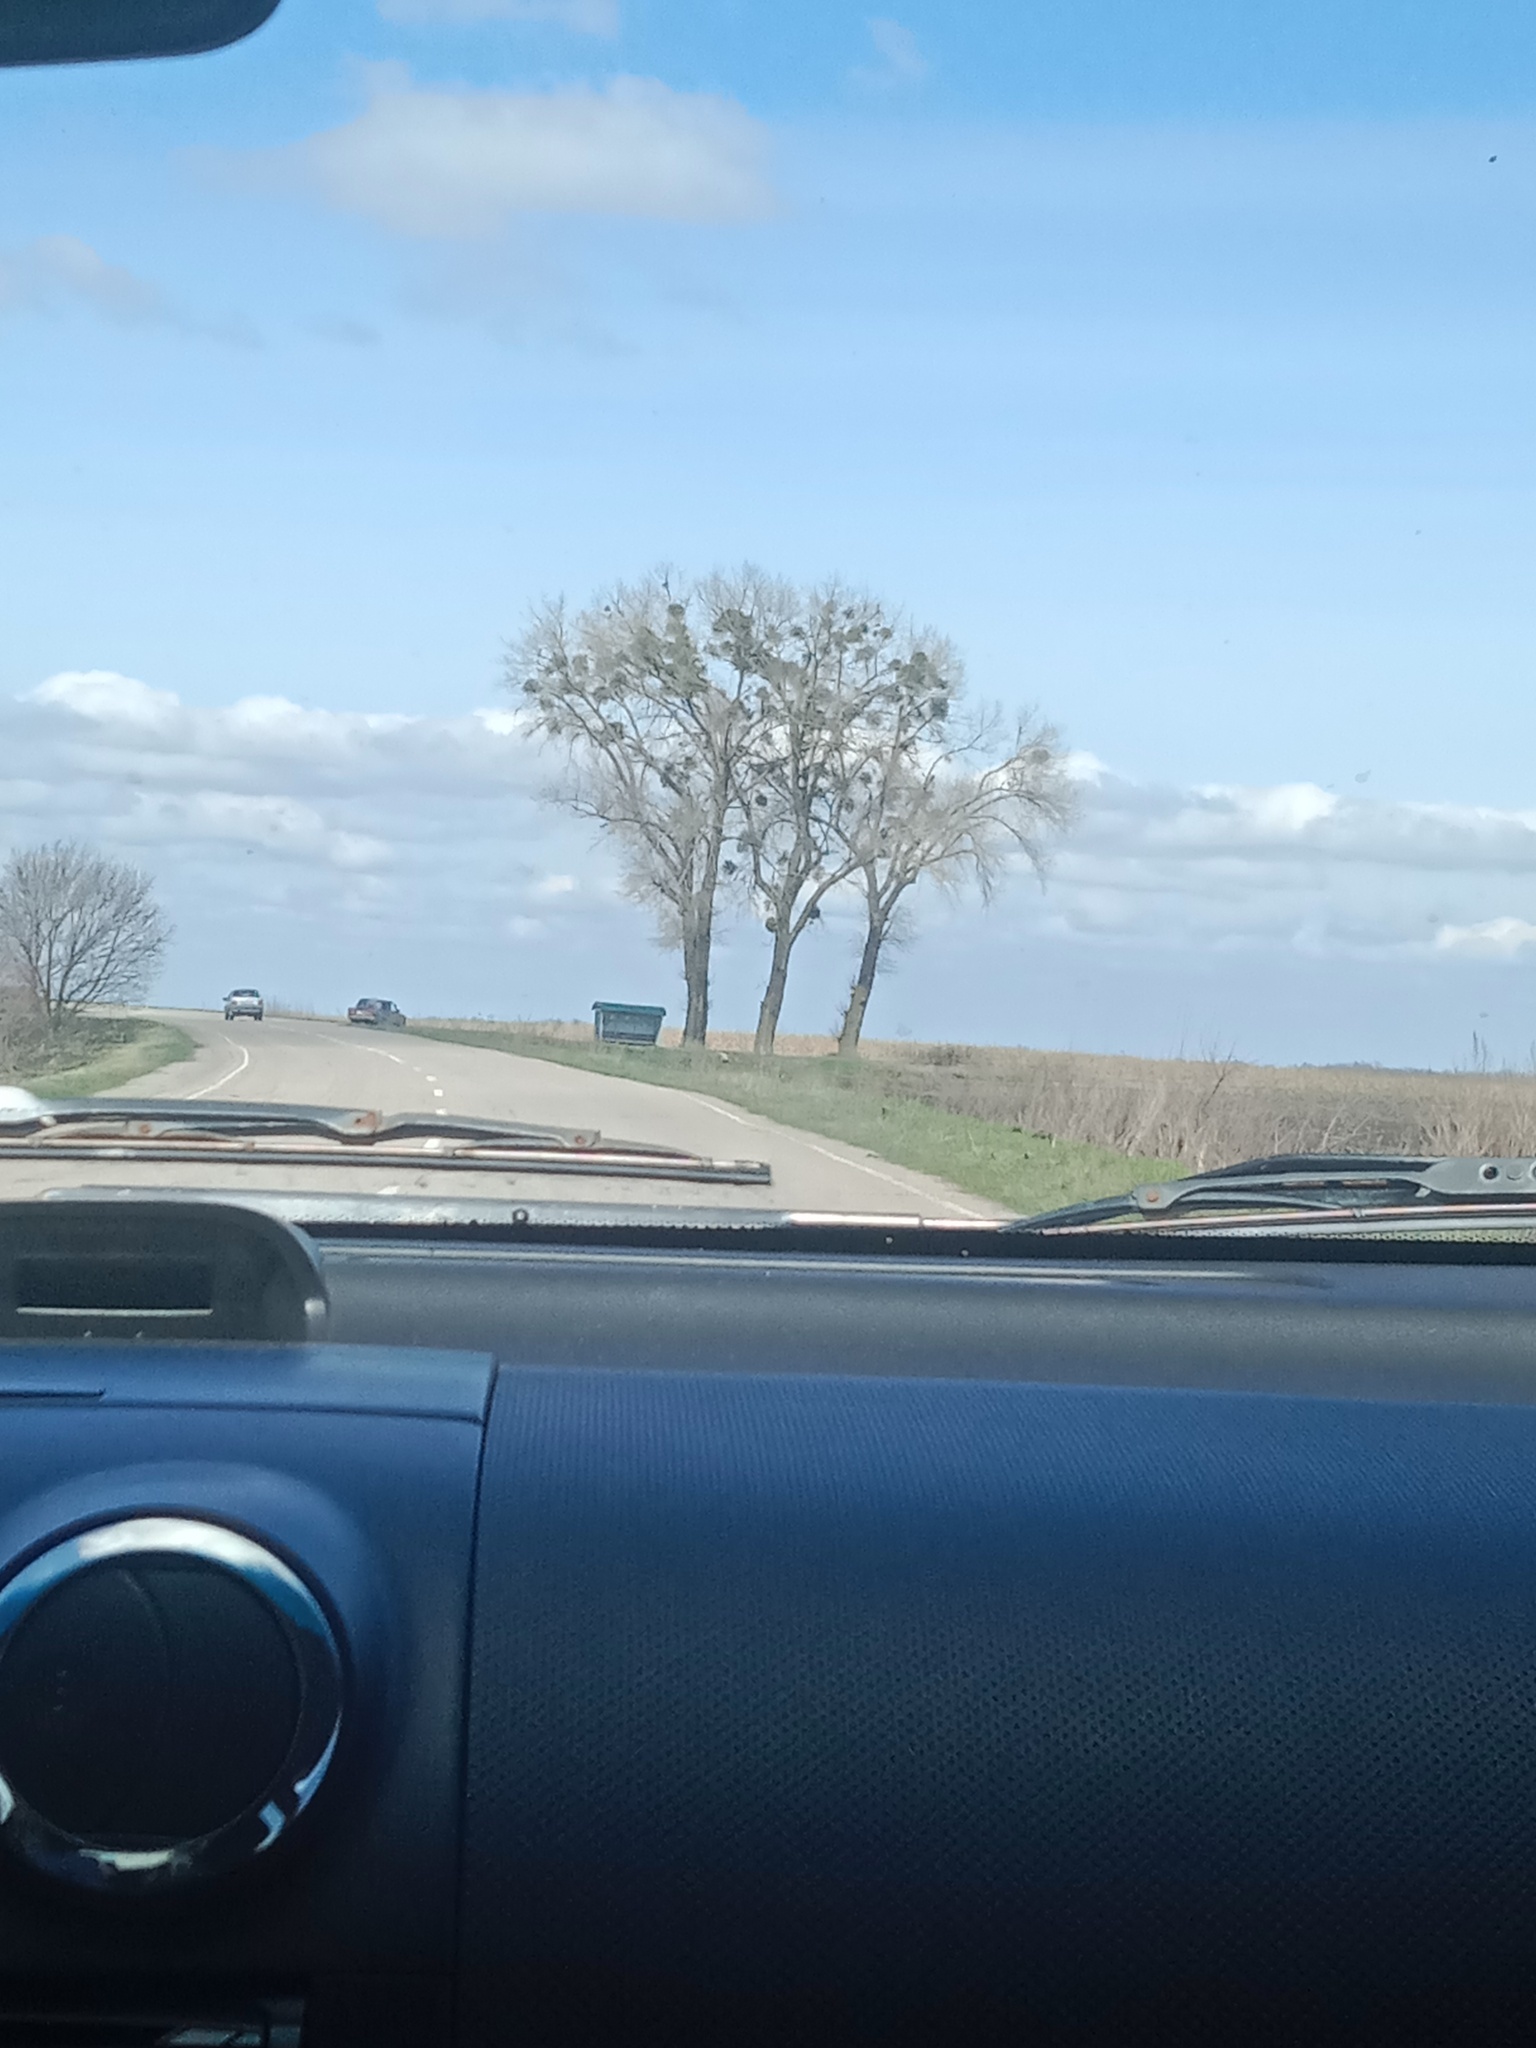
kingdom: Plantae
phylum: Tracheophyta
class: Magnoliopsida
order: Santalales
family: Viscaceae
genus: Viscum
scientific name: Viscum album
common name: Mistletoe
